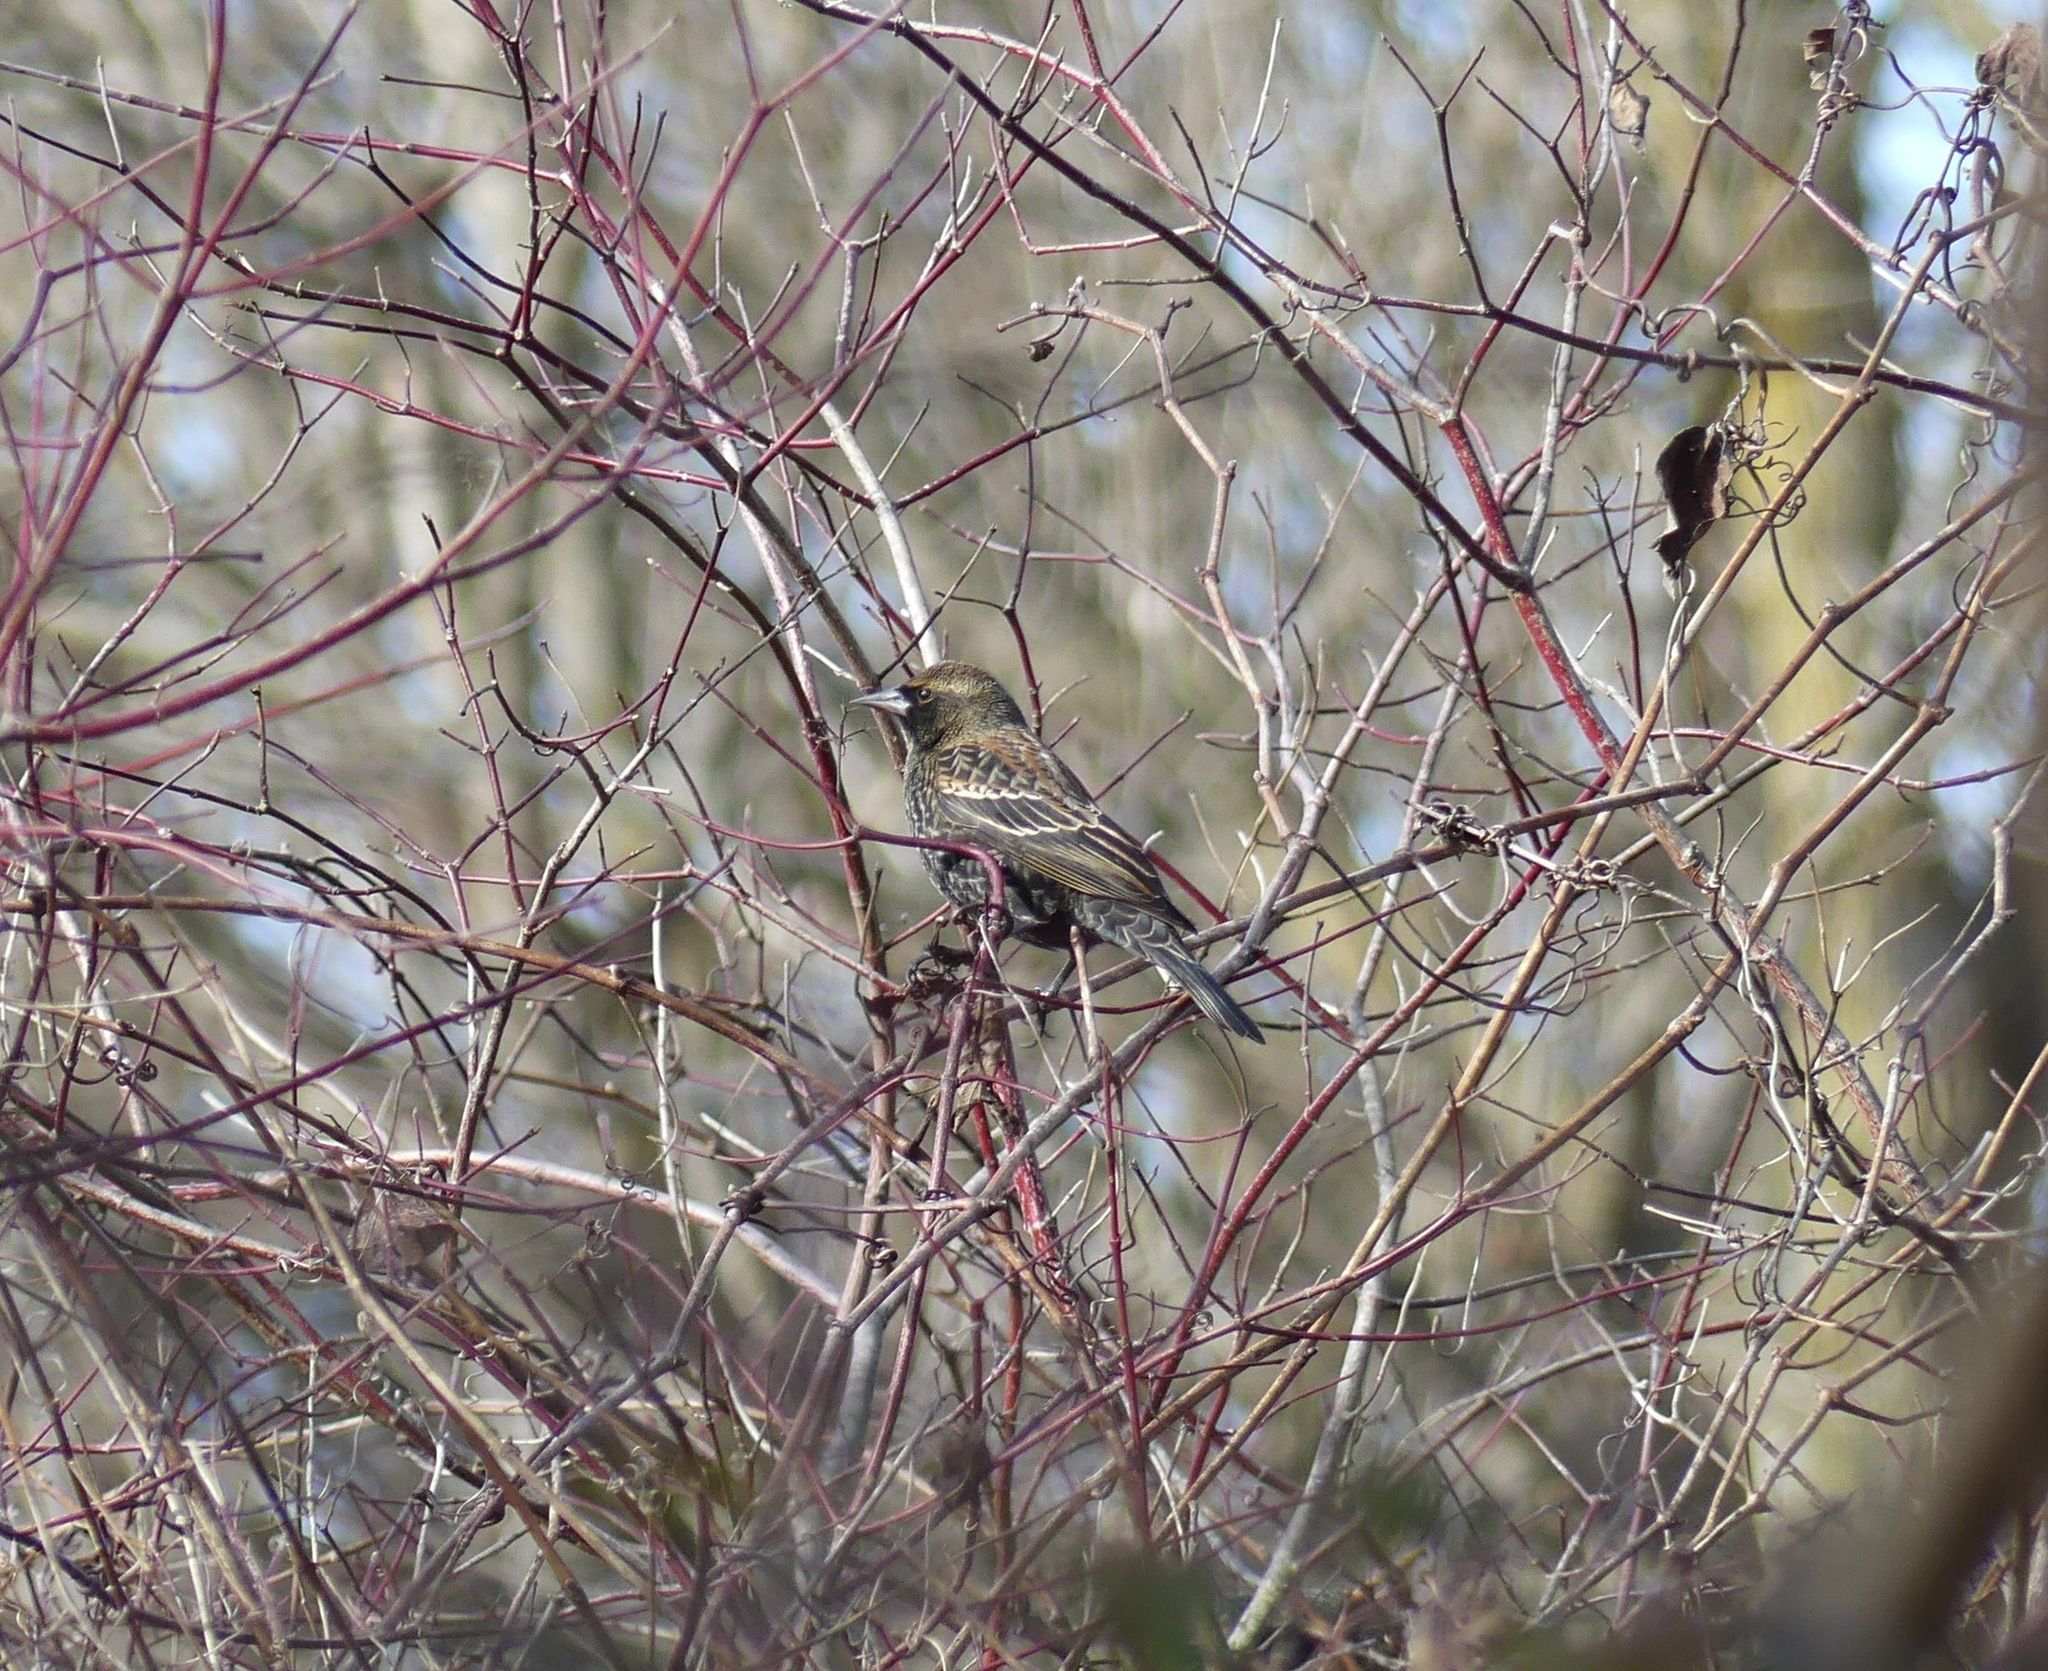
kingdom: Animalia
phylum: Chordata
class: Aves
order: Passeriformes
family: Icteridae
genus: Agelaius
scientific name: Agelaius phoeniceus
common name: Red-winged blackbird
